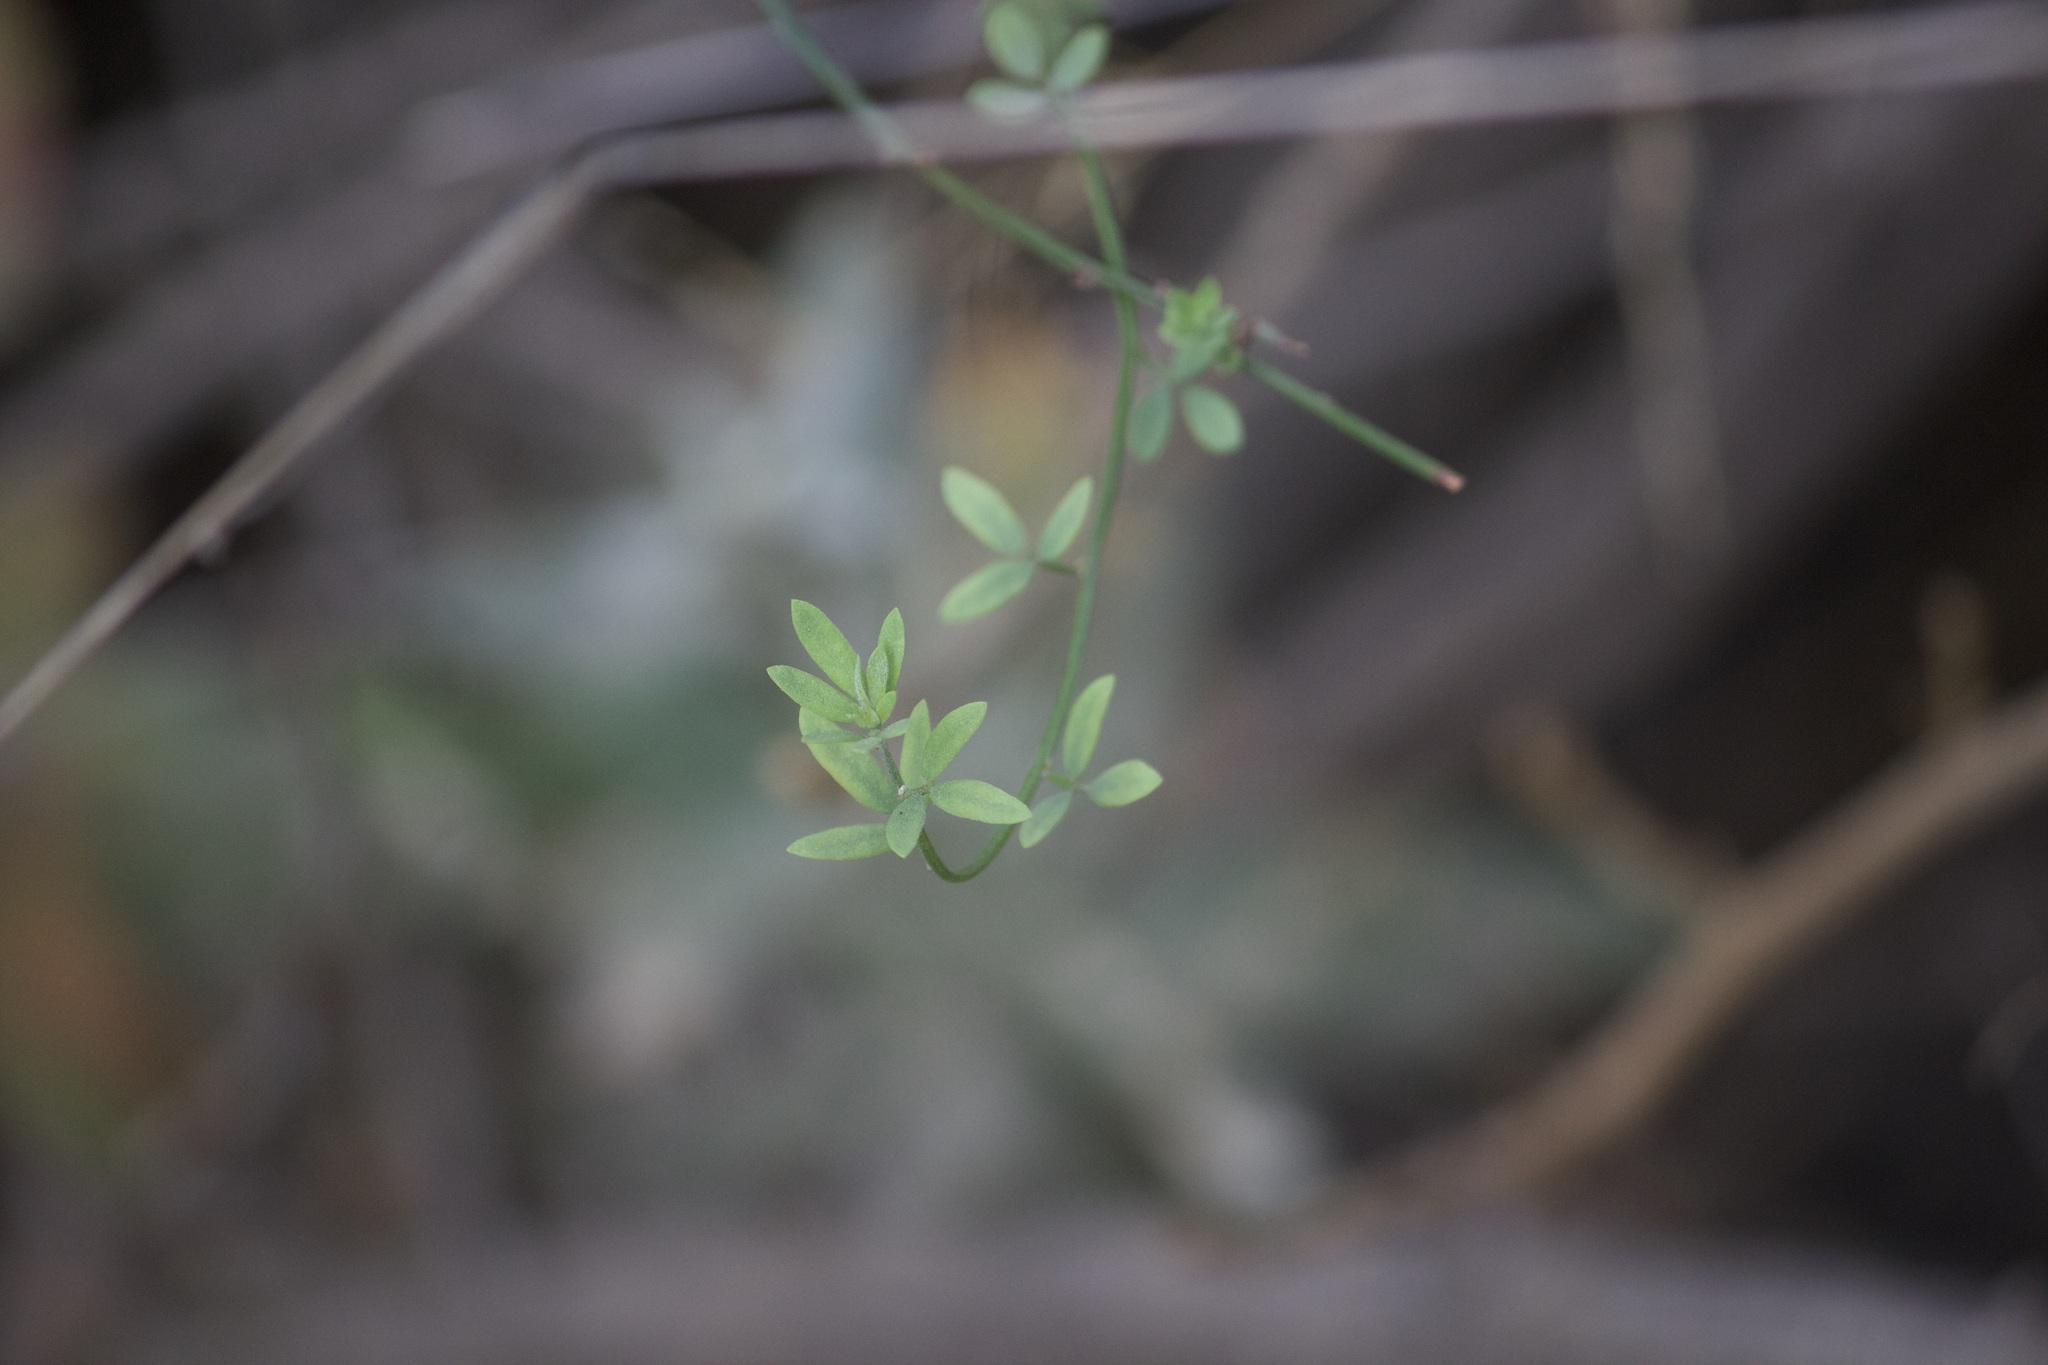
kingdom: Plantae
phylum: Tracheophyta
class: Magnoliopsida
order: Fabales
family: Fabaceae
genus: Acmispon
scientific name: Acmispon glaber
